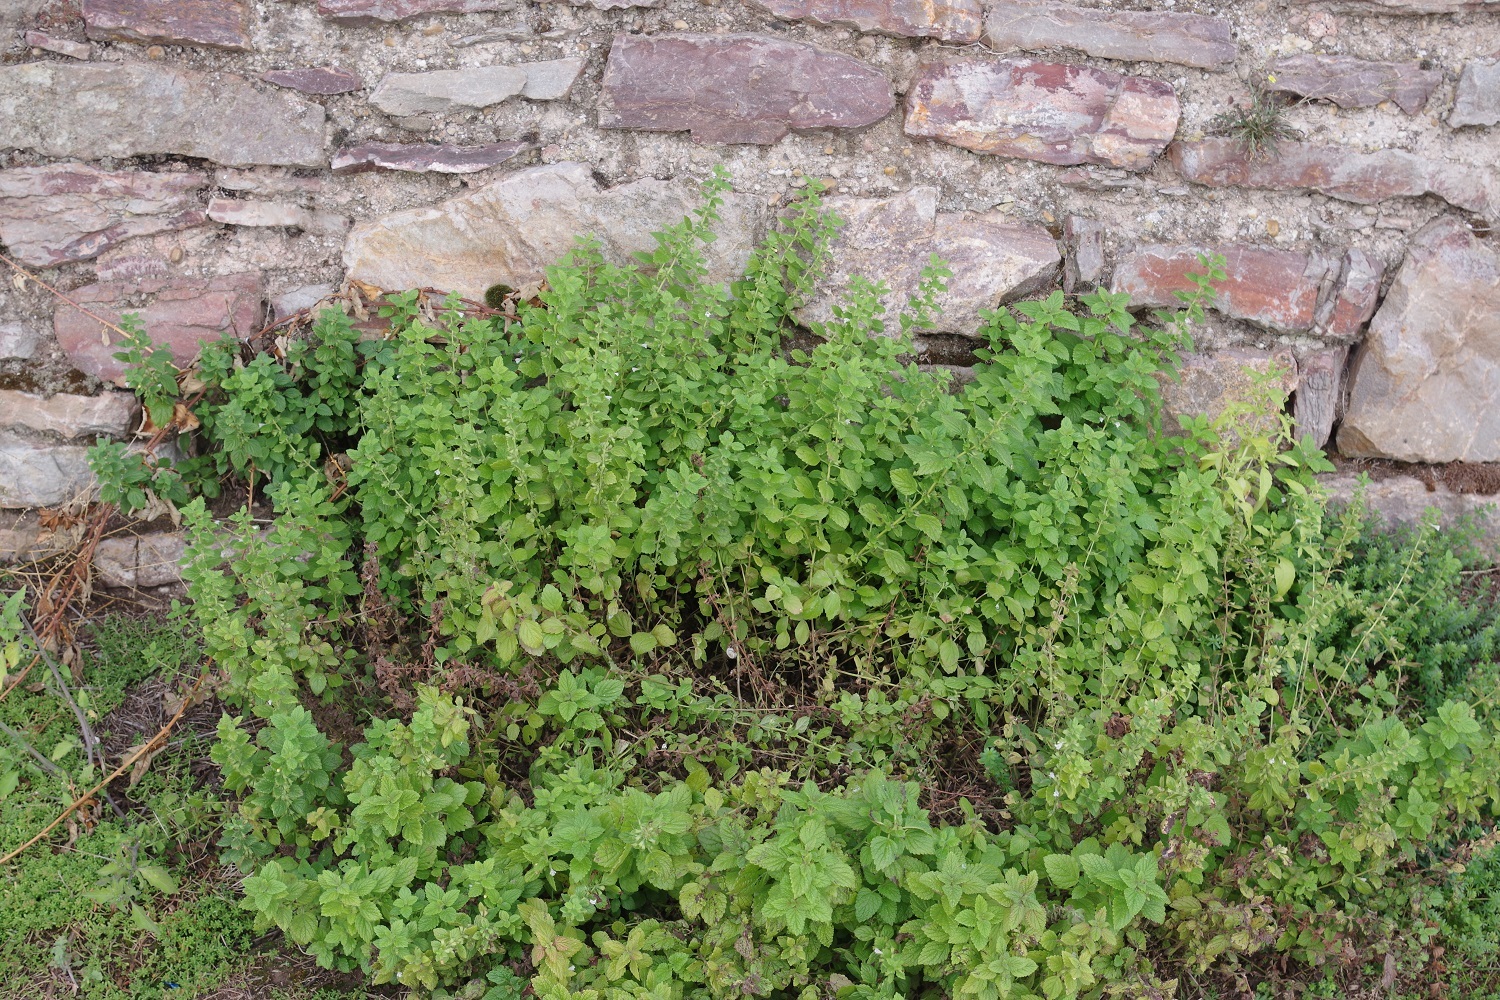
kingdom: Plantae
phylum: Tracheophyta
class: Magnoliopsida
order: Lamiales
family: Lamiaceae
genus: Melissa
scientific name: Melissa officinalis
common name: Balm
